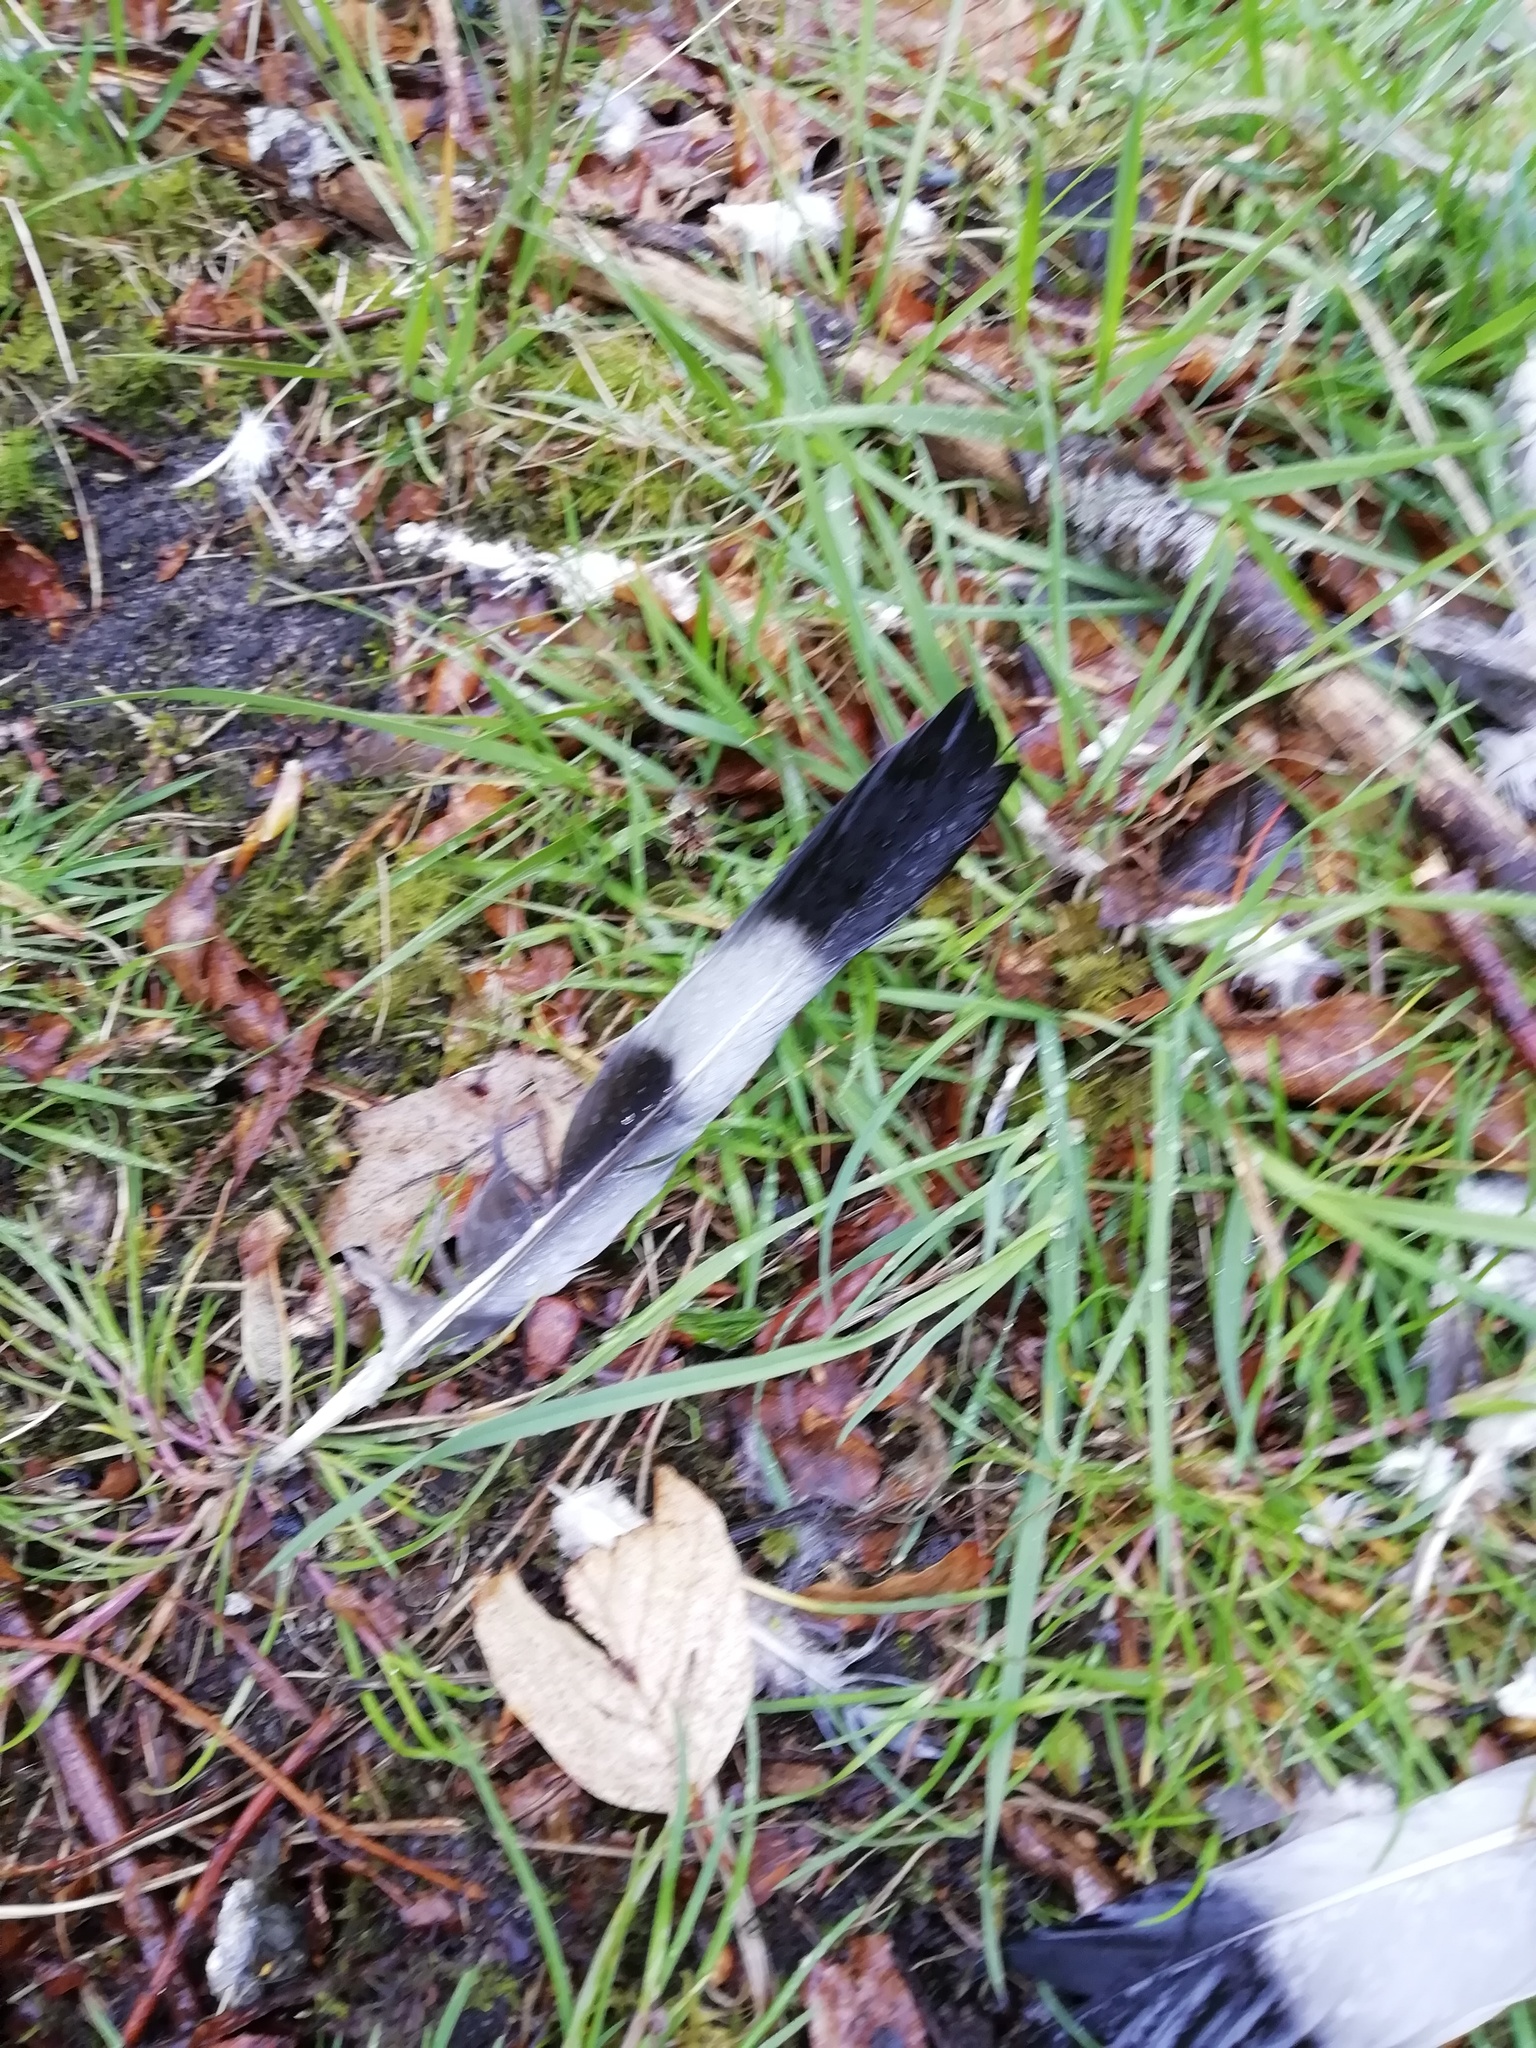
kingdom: Animalia
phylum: Chordata
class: Aves
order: Columbiformes
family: Columbidae
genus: Columba
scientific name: Columba palumbus
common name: Common wood pigeon
